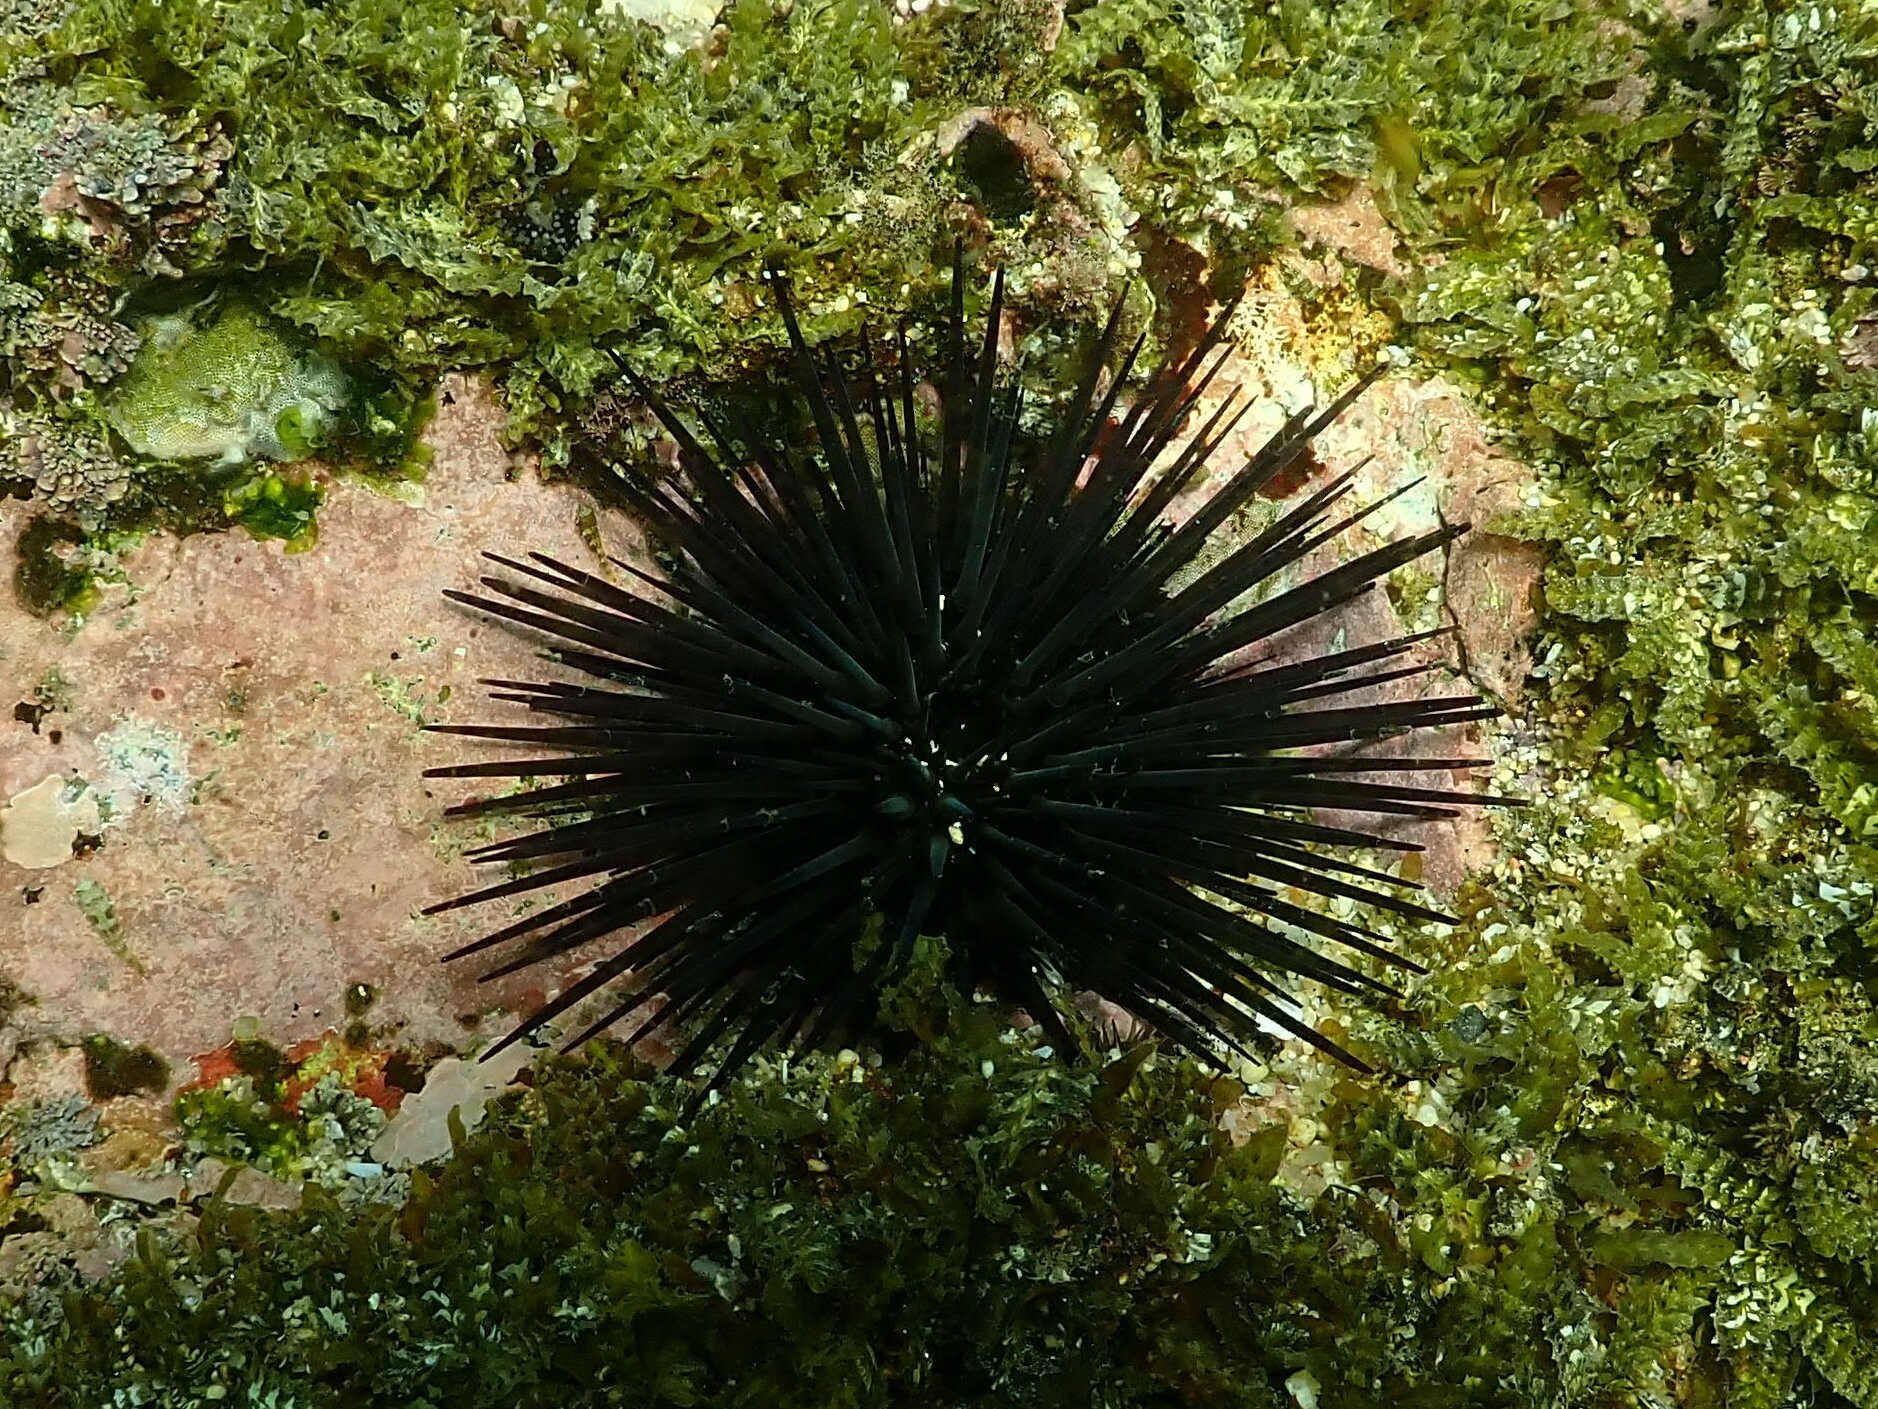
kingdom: Animalia
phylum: Echinodermata
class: Echinoidea
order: Camarodonta
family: Echinometridae
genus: Echinometra
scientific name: Echinometra vanbrunti
